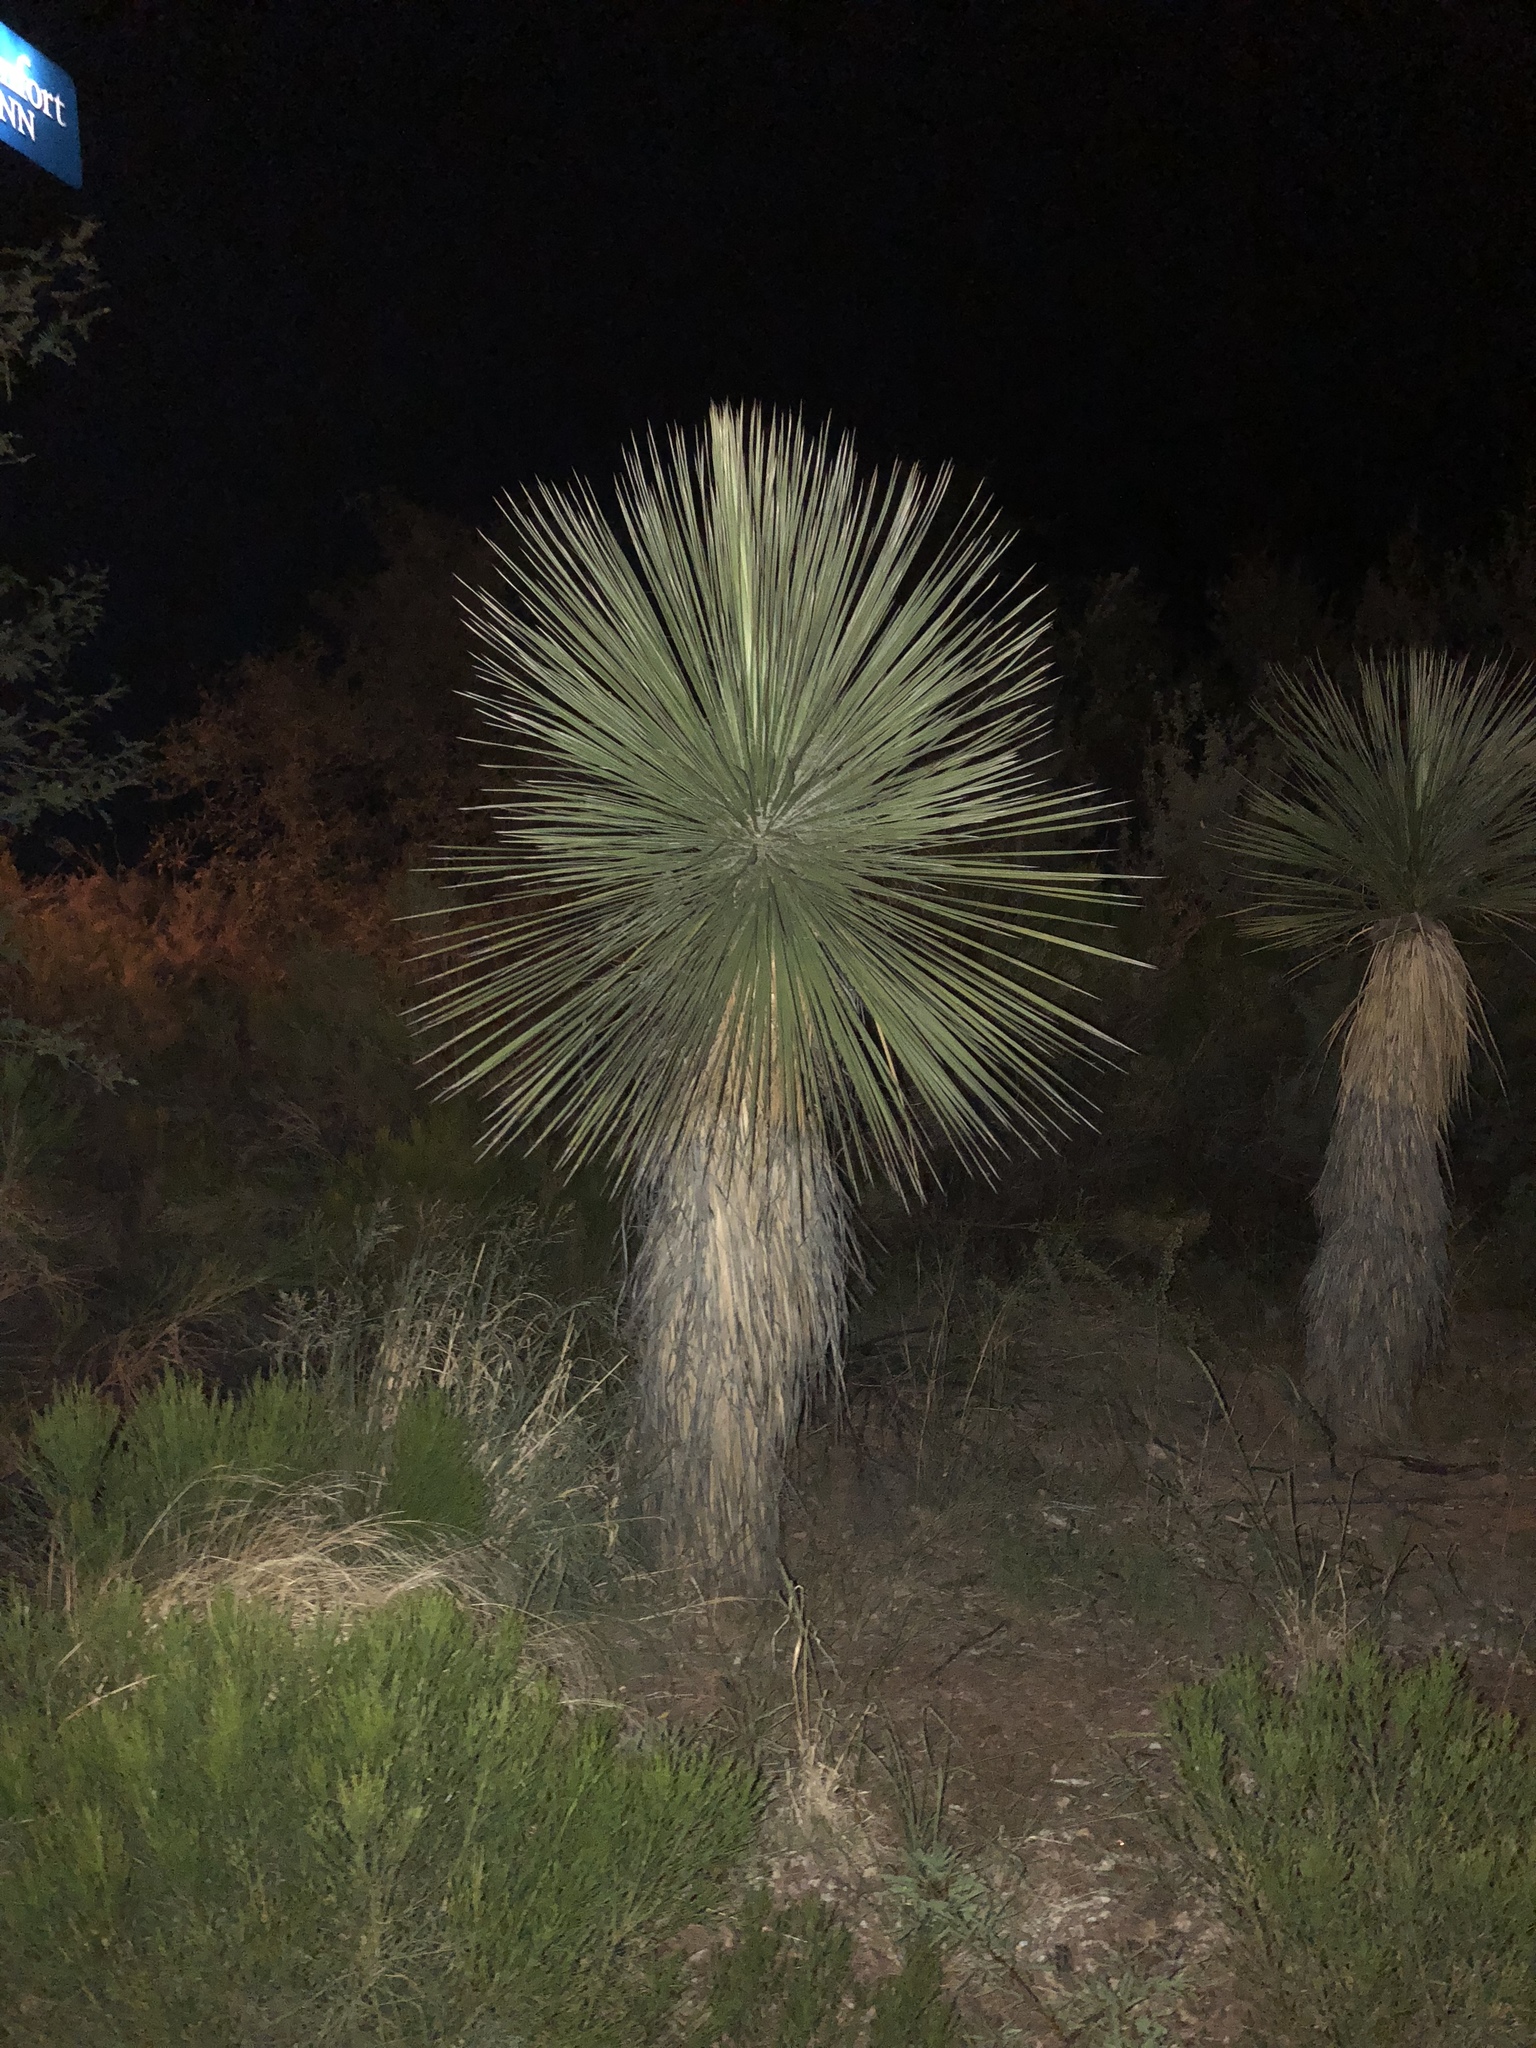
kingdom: Plantae
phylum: Tracheophyta
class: Liliopsida
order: Asparagales
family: Asparagaceae
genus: Yucca
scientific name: Yucca elata
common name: Palmella
